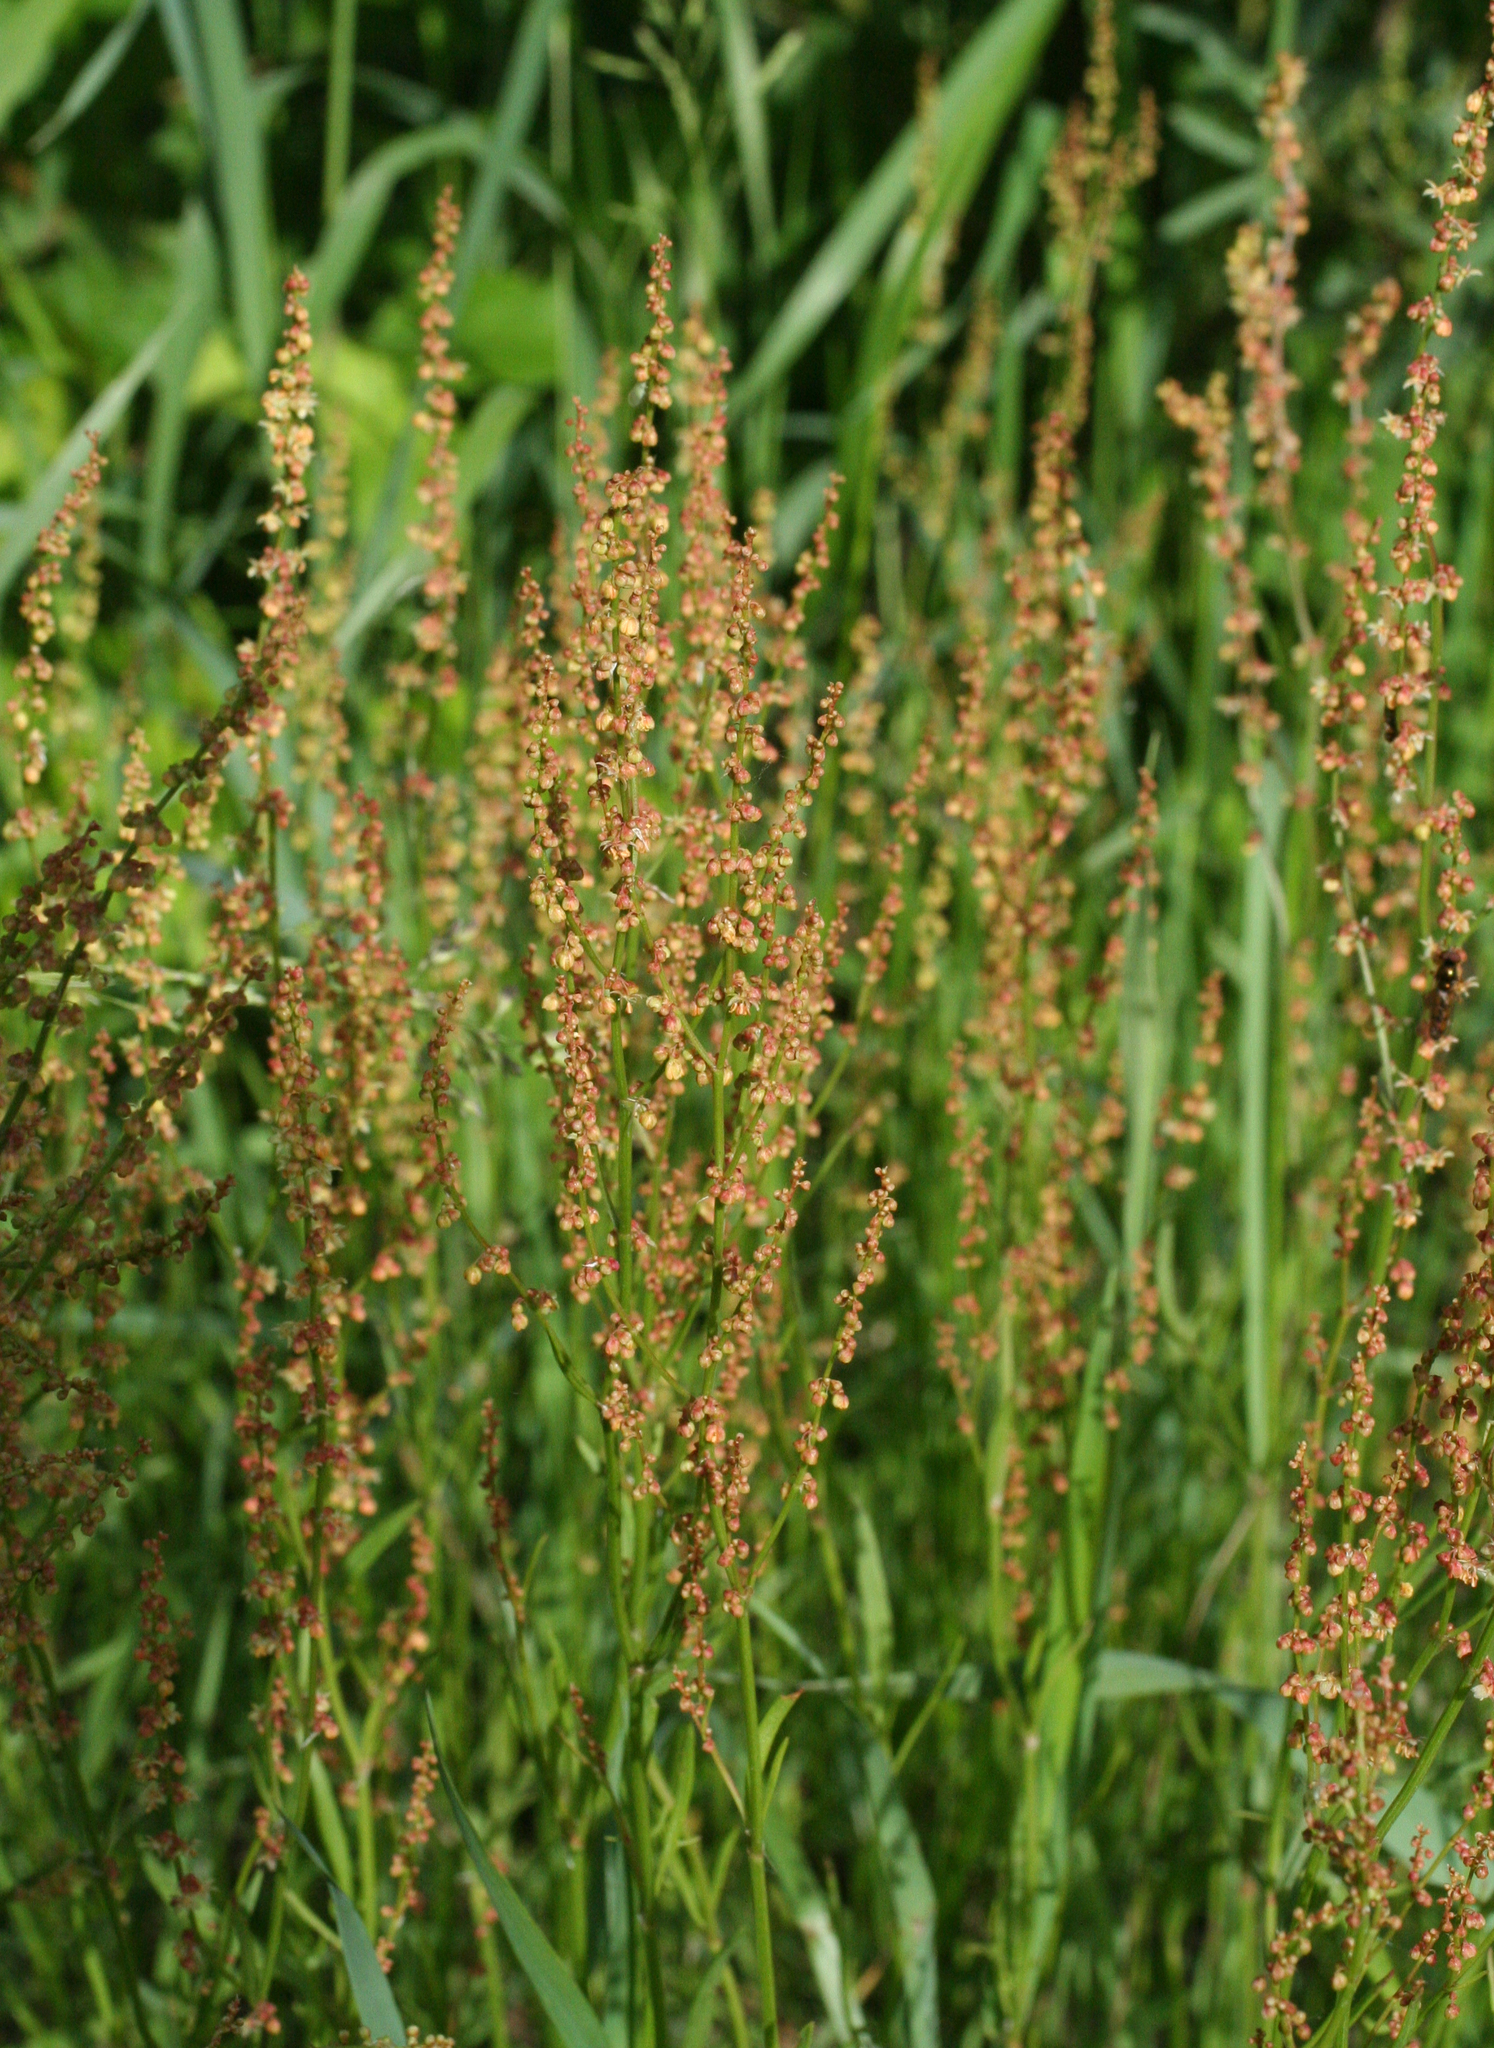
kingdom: Plantae
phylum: Tracheophyta
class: Magnoliopsida
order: Caryophyllales
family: Polygonaceae
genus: Rumex
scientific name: Rumex acetosella
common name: Common sheep sorrel
